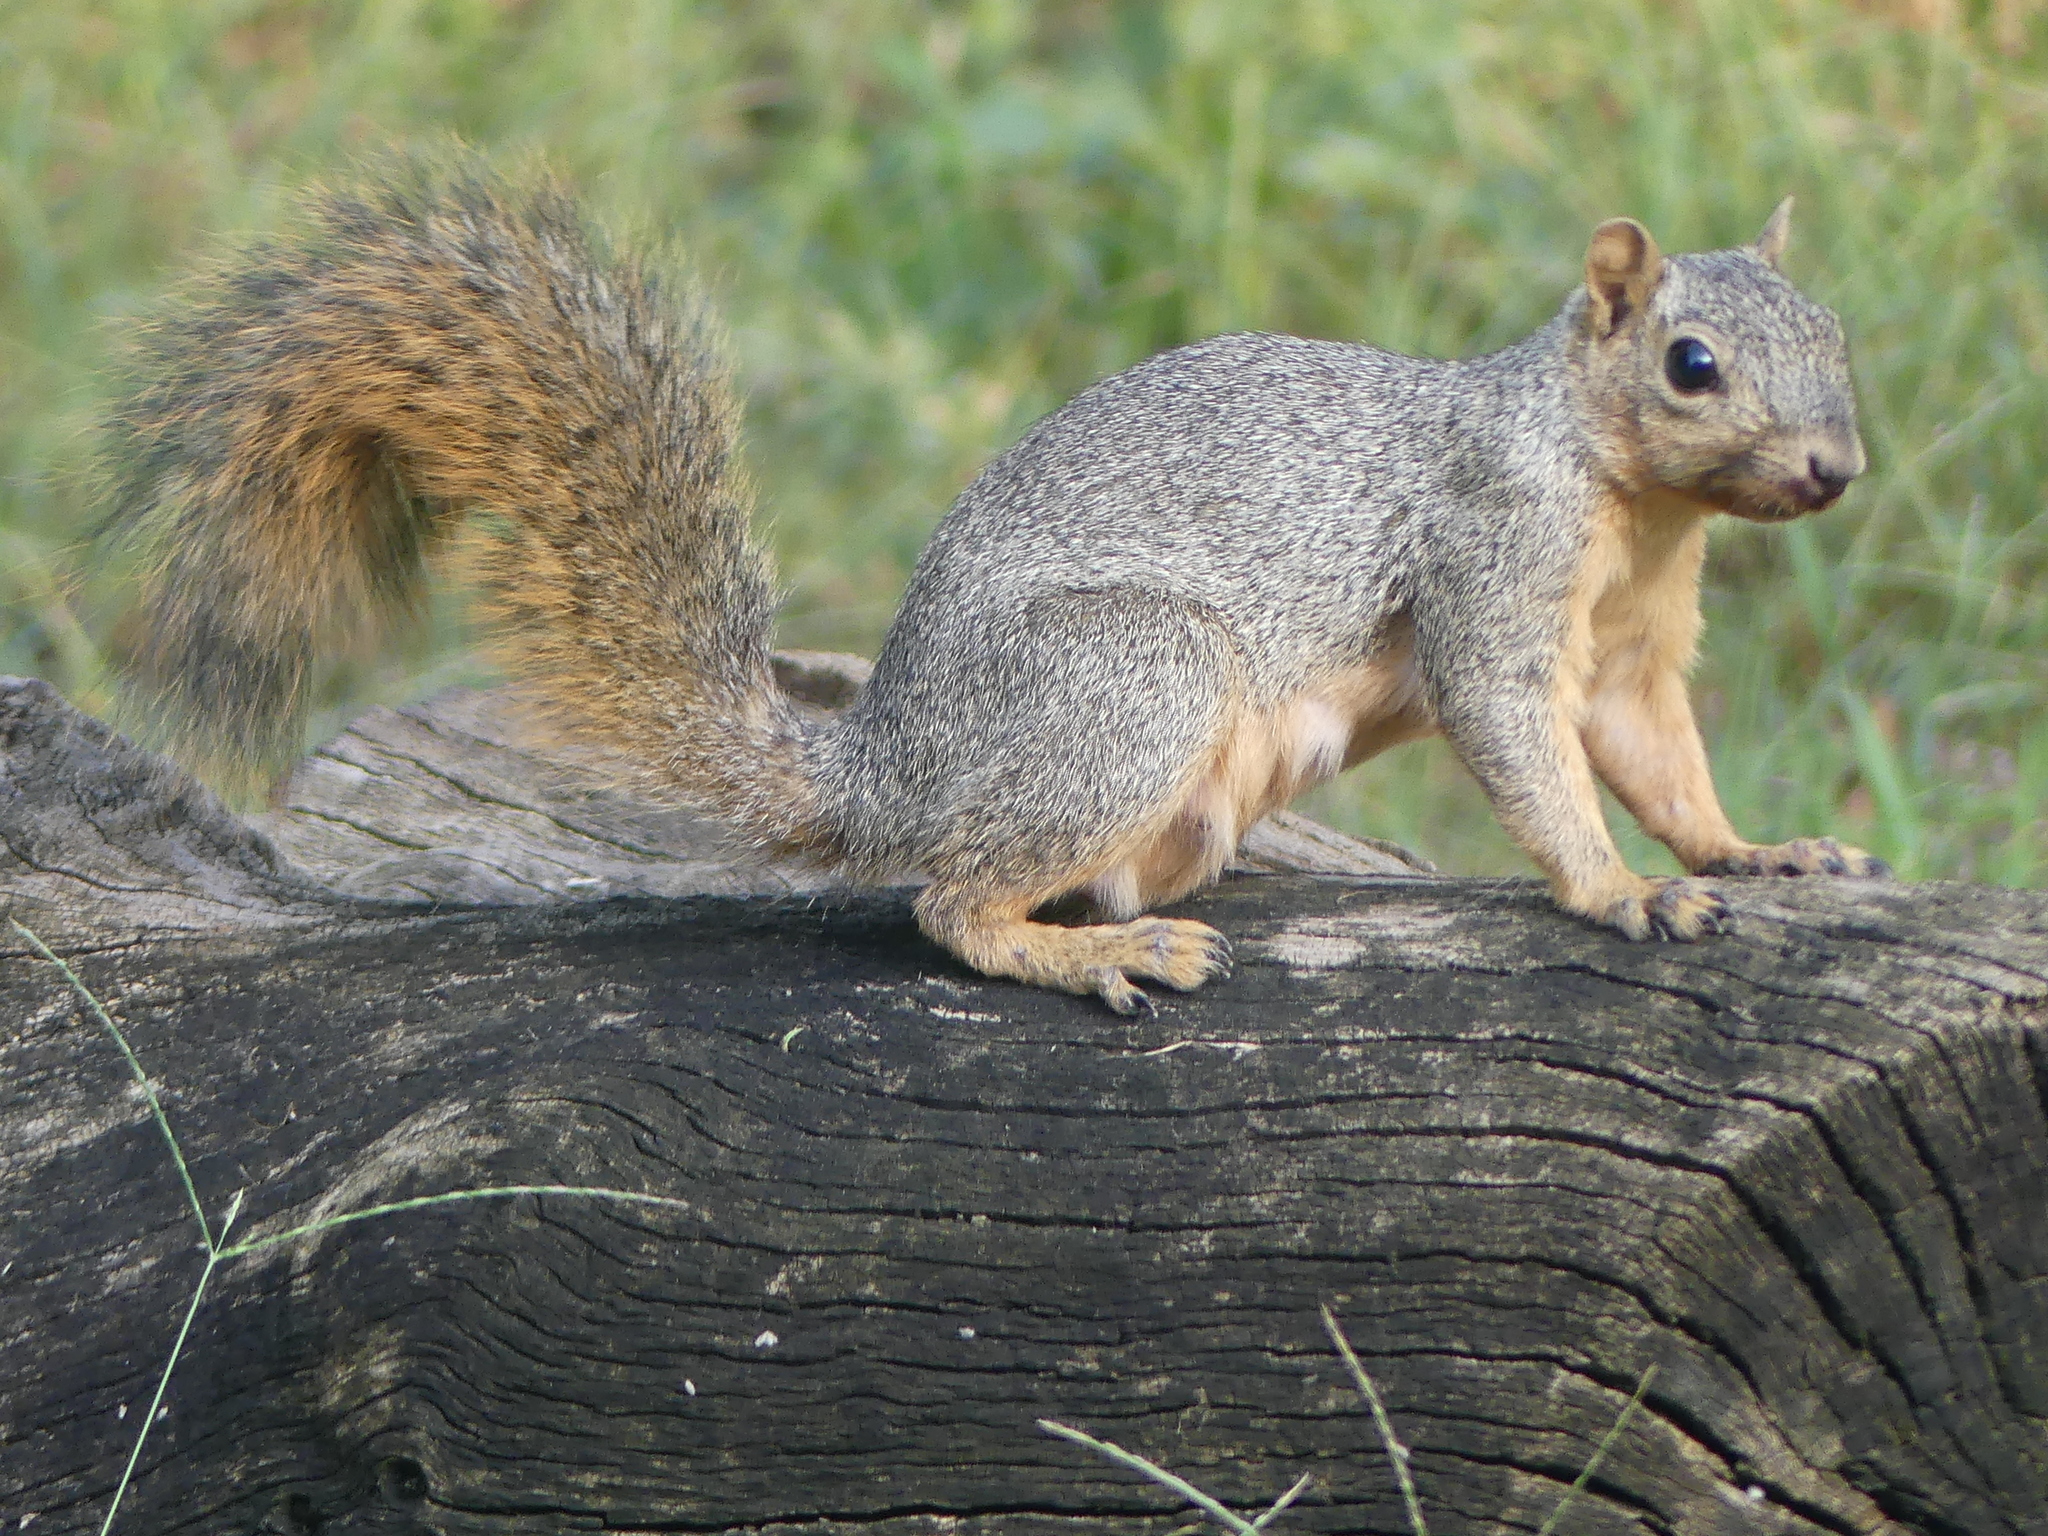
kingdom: Animalia
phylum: Chordata
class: Mammalia
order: Rodentia
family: Sciuridae
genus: Sciurus
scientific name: Sciurus niger
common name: Fox squirrel
